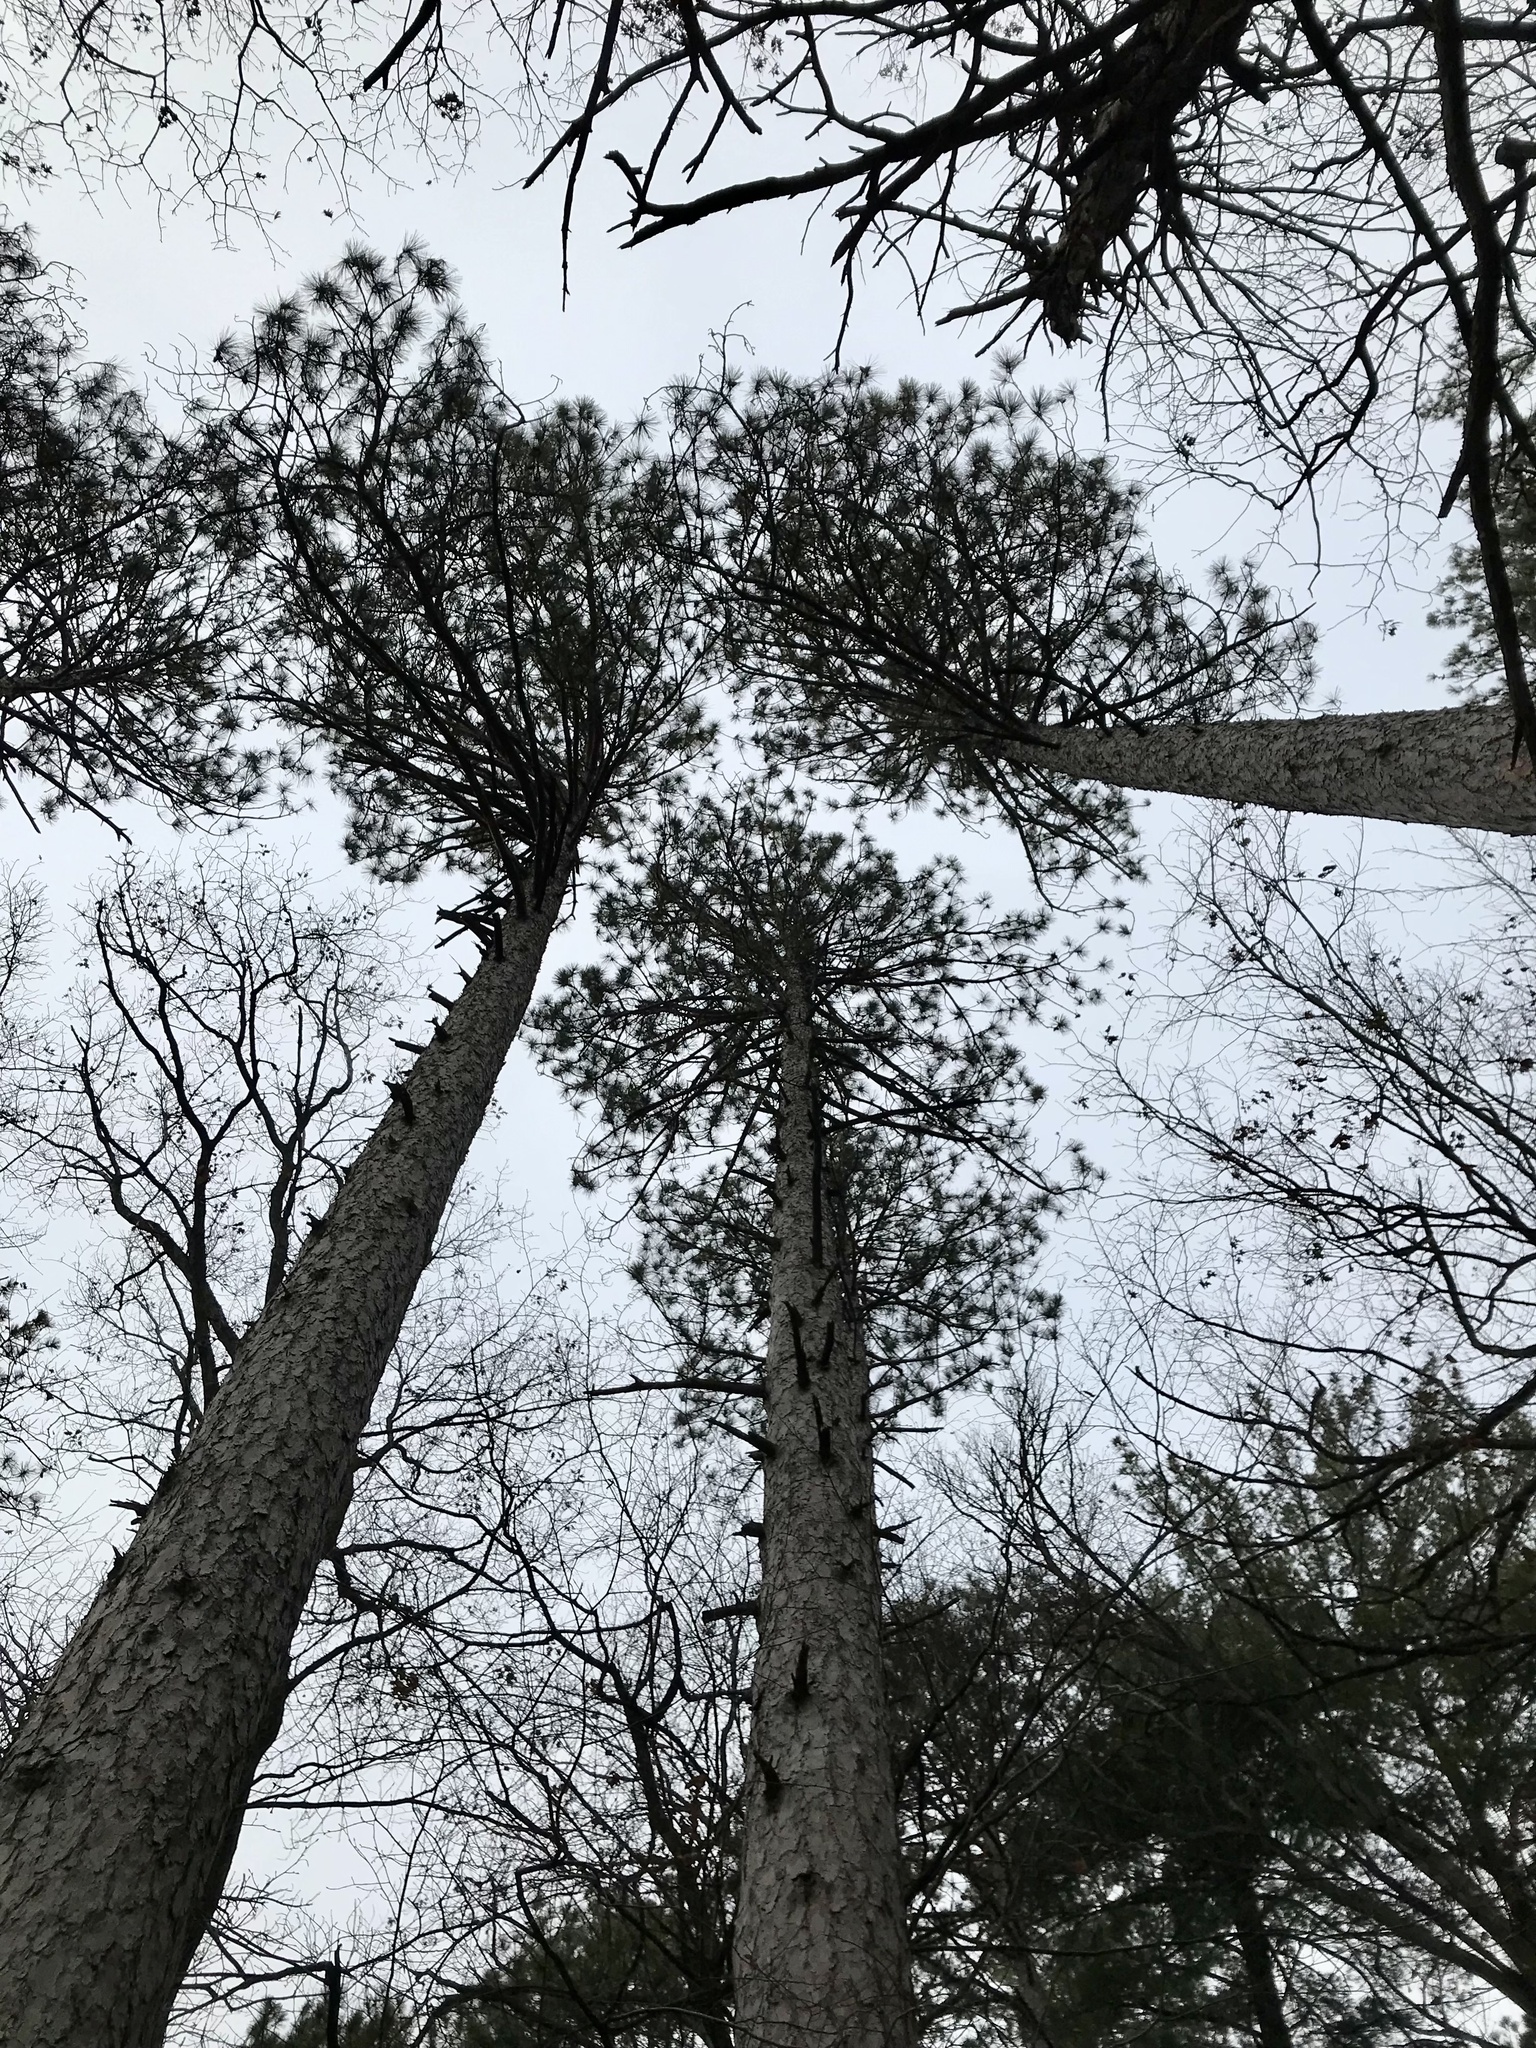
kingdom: Plantae
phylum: Tracheophyta
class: Pinopsida
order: Pinales
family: Pinaceae
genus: Pinus
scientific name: Pinus resinosa
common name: Norway pine
